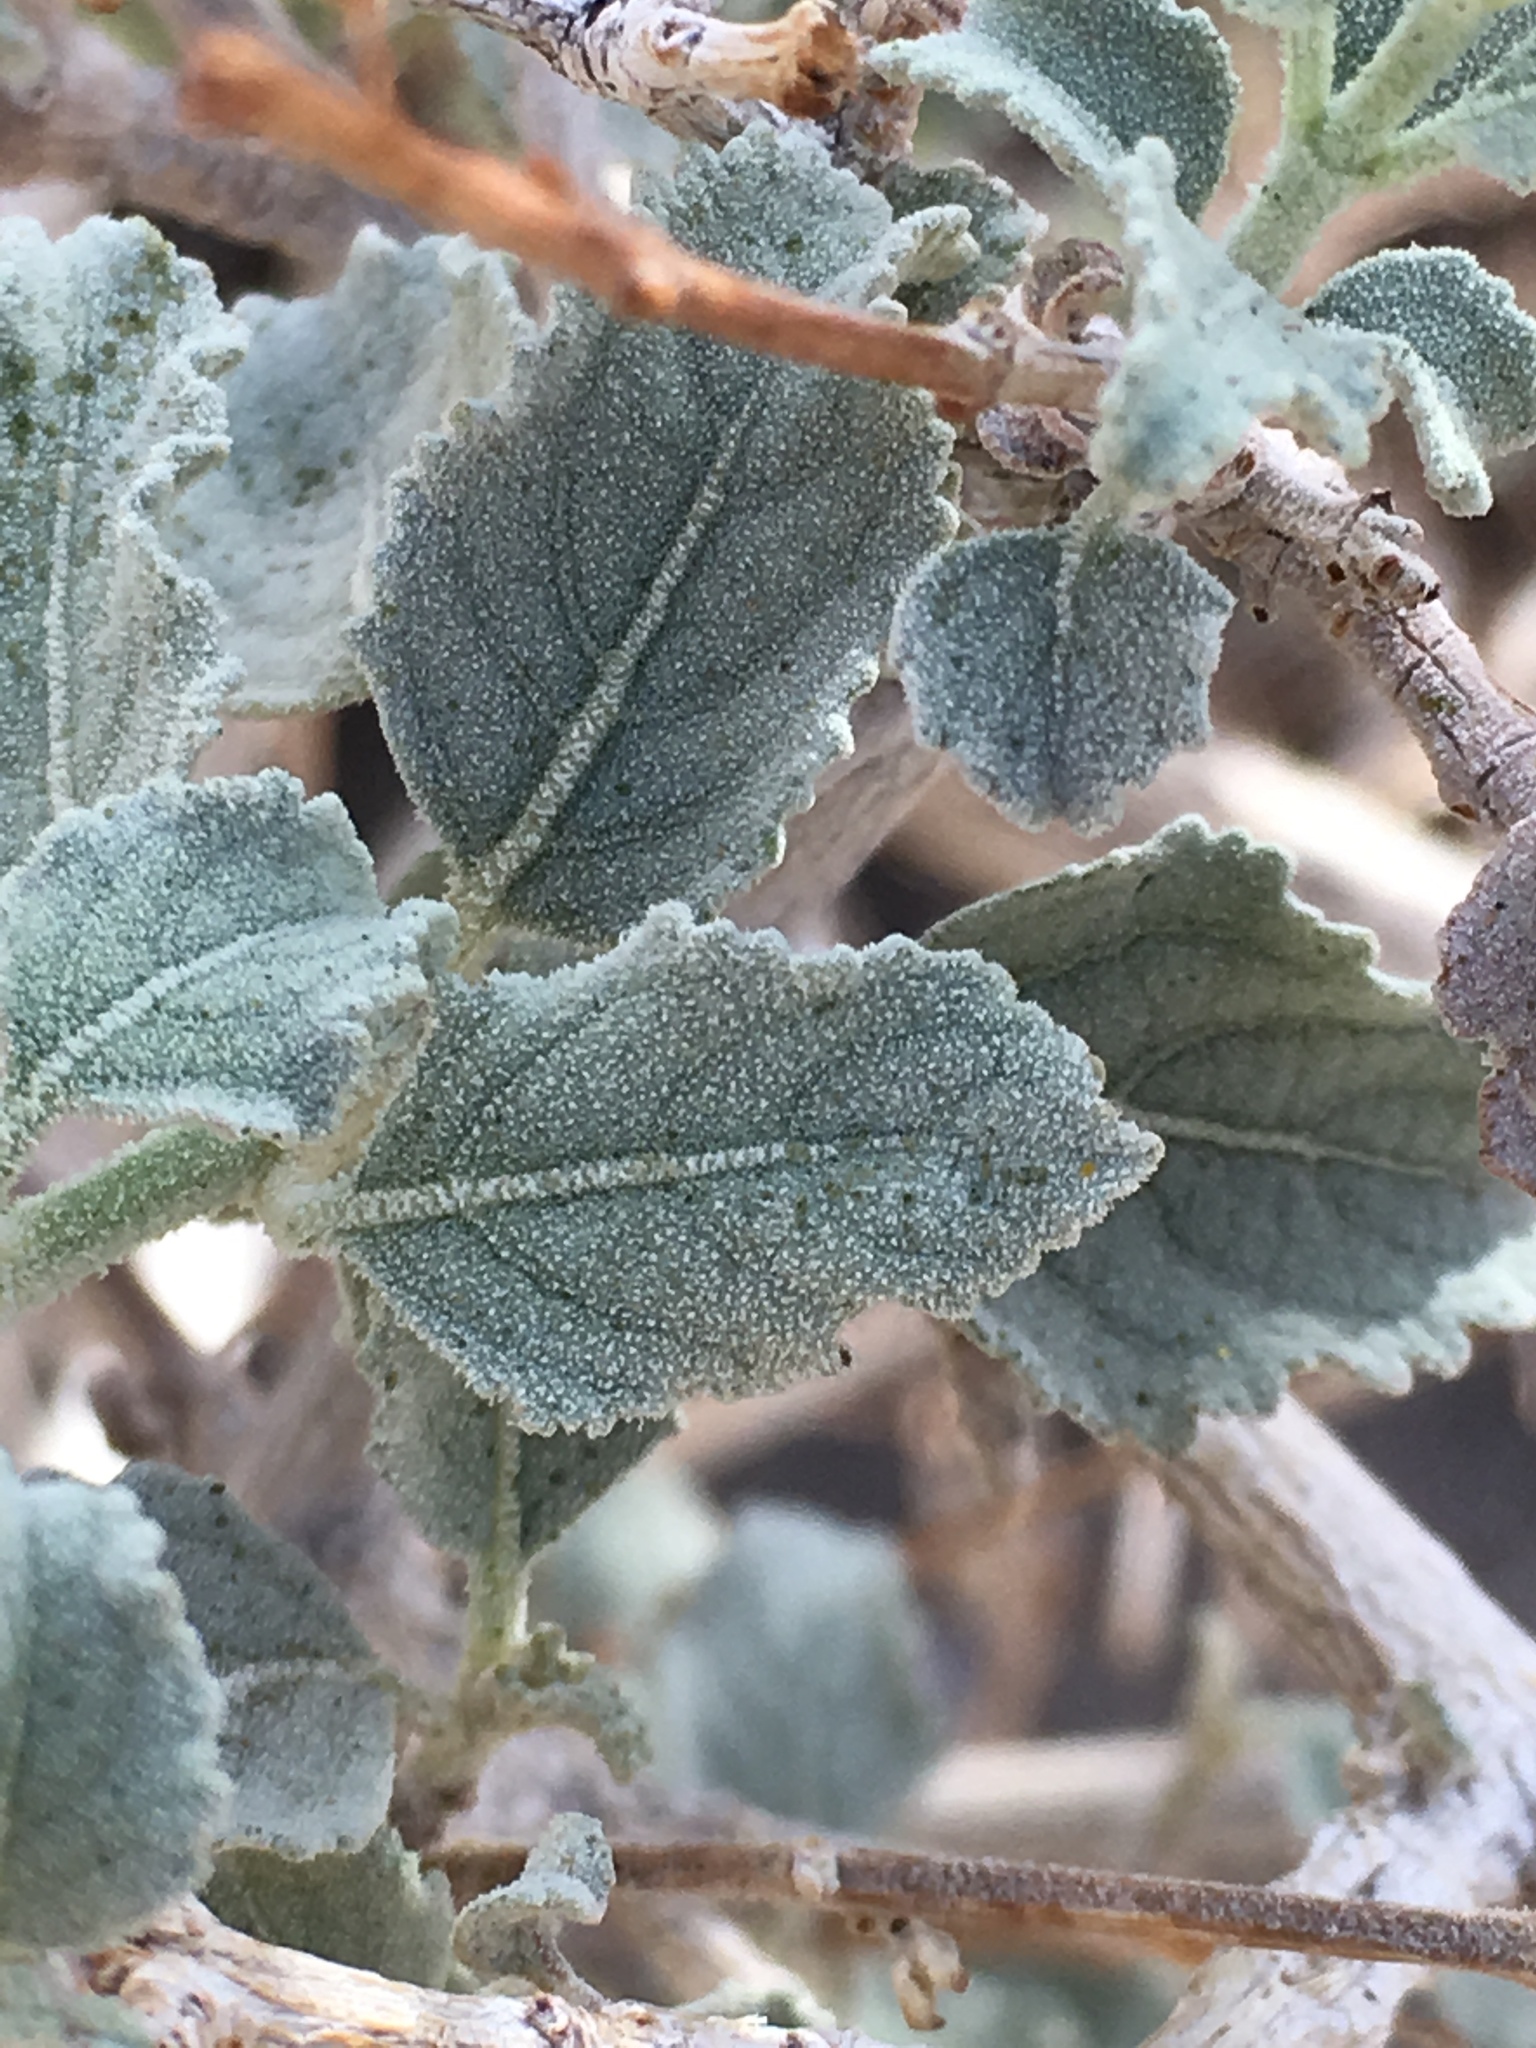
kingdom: Plantae
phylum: Tracheophyta
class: Magnoliopsida
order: Lamiales
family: Lamiaceae
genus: Condea
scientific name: Condea emoryi
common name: Chia
